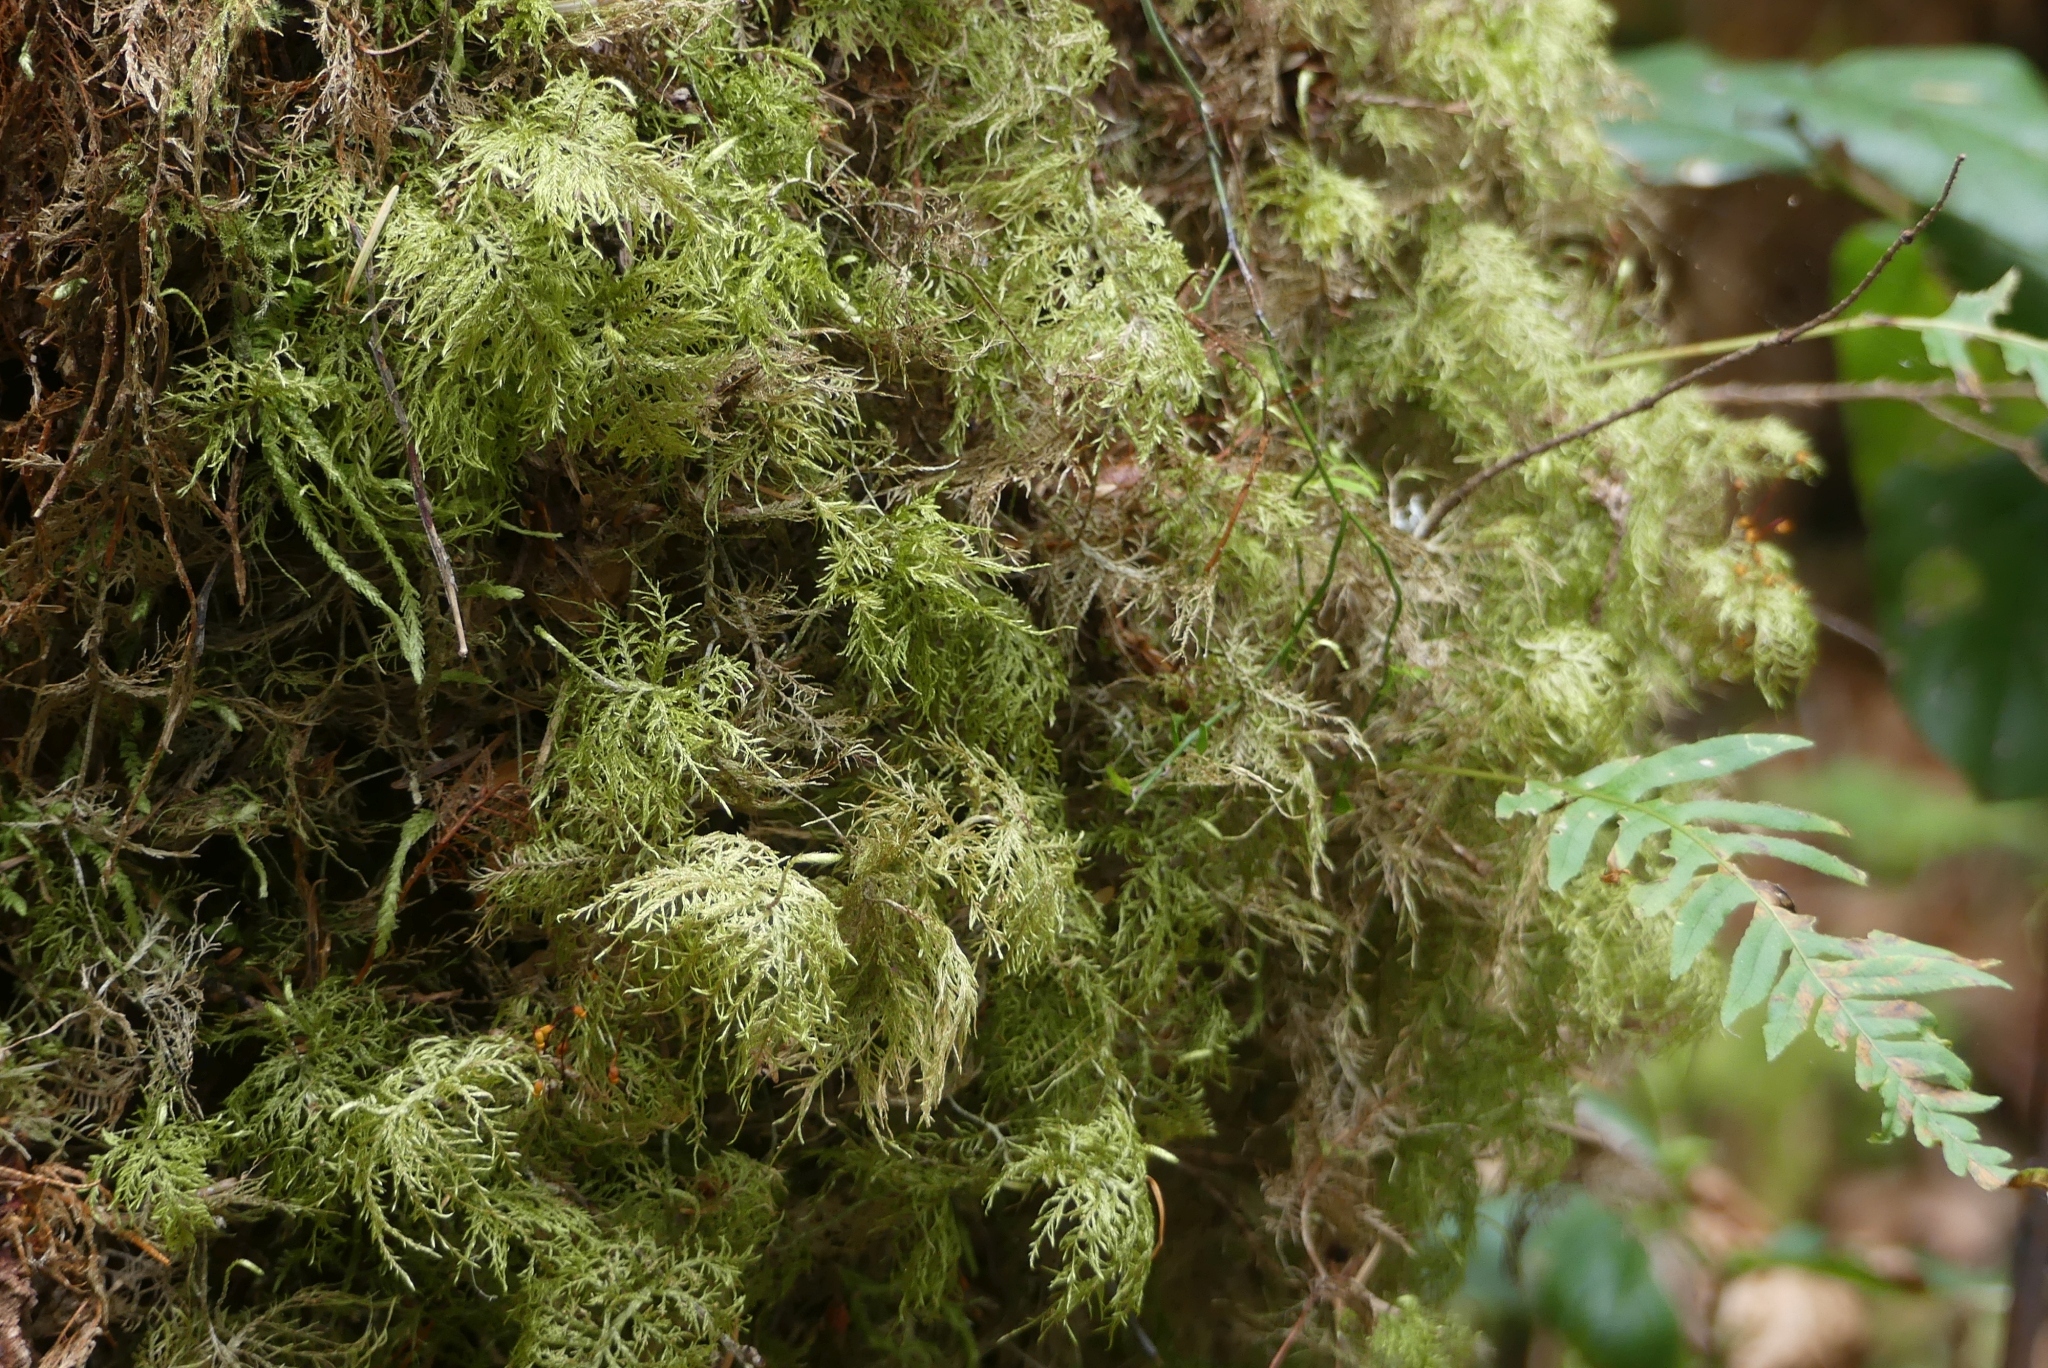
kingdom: Plantae
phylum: Bryophyta
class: Bryopsida
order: Hypnales
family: Hylocomiaceae
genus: Hylocomium
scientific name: Hylocomium splendens
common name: Stairstep moss
